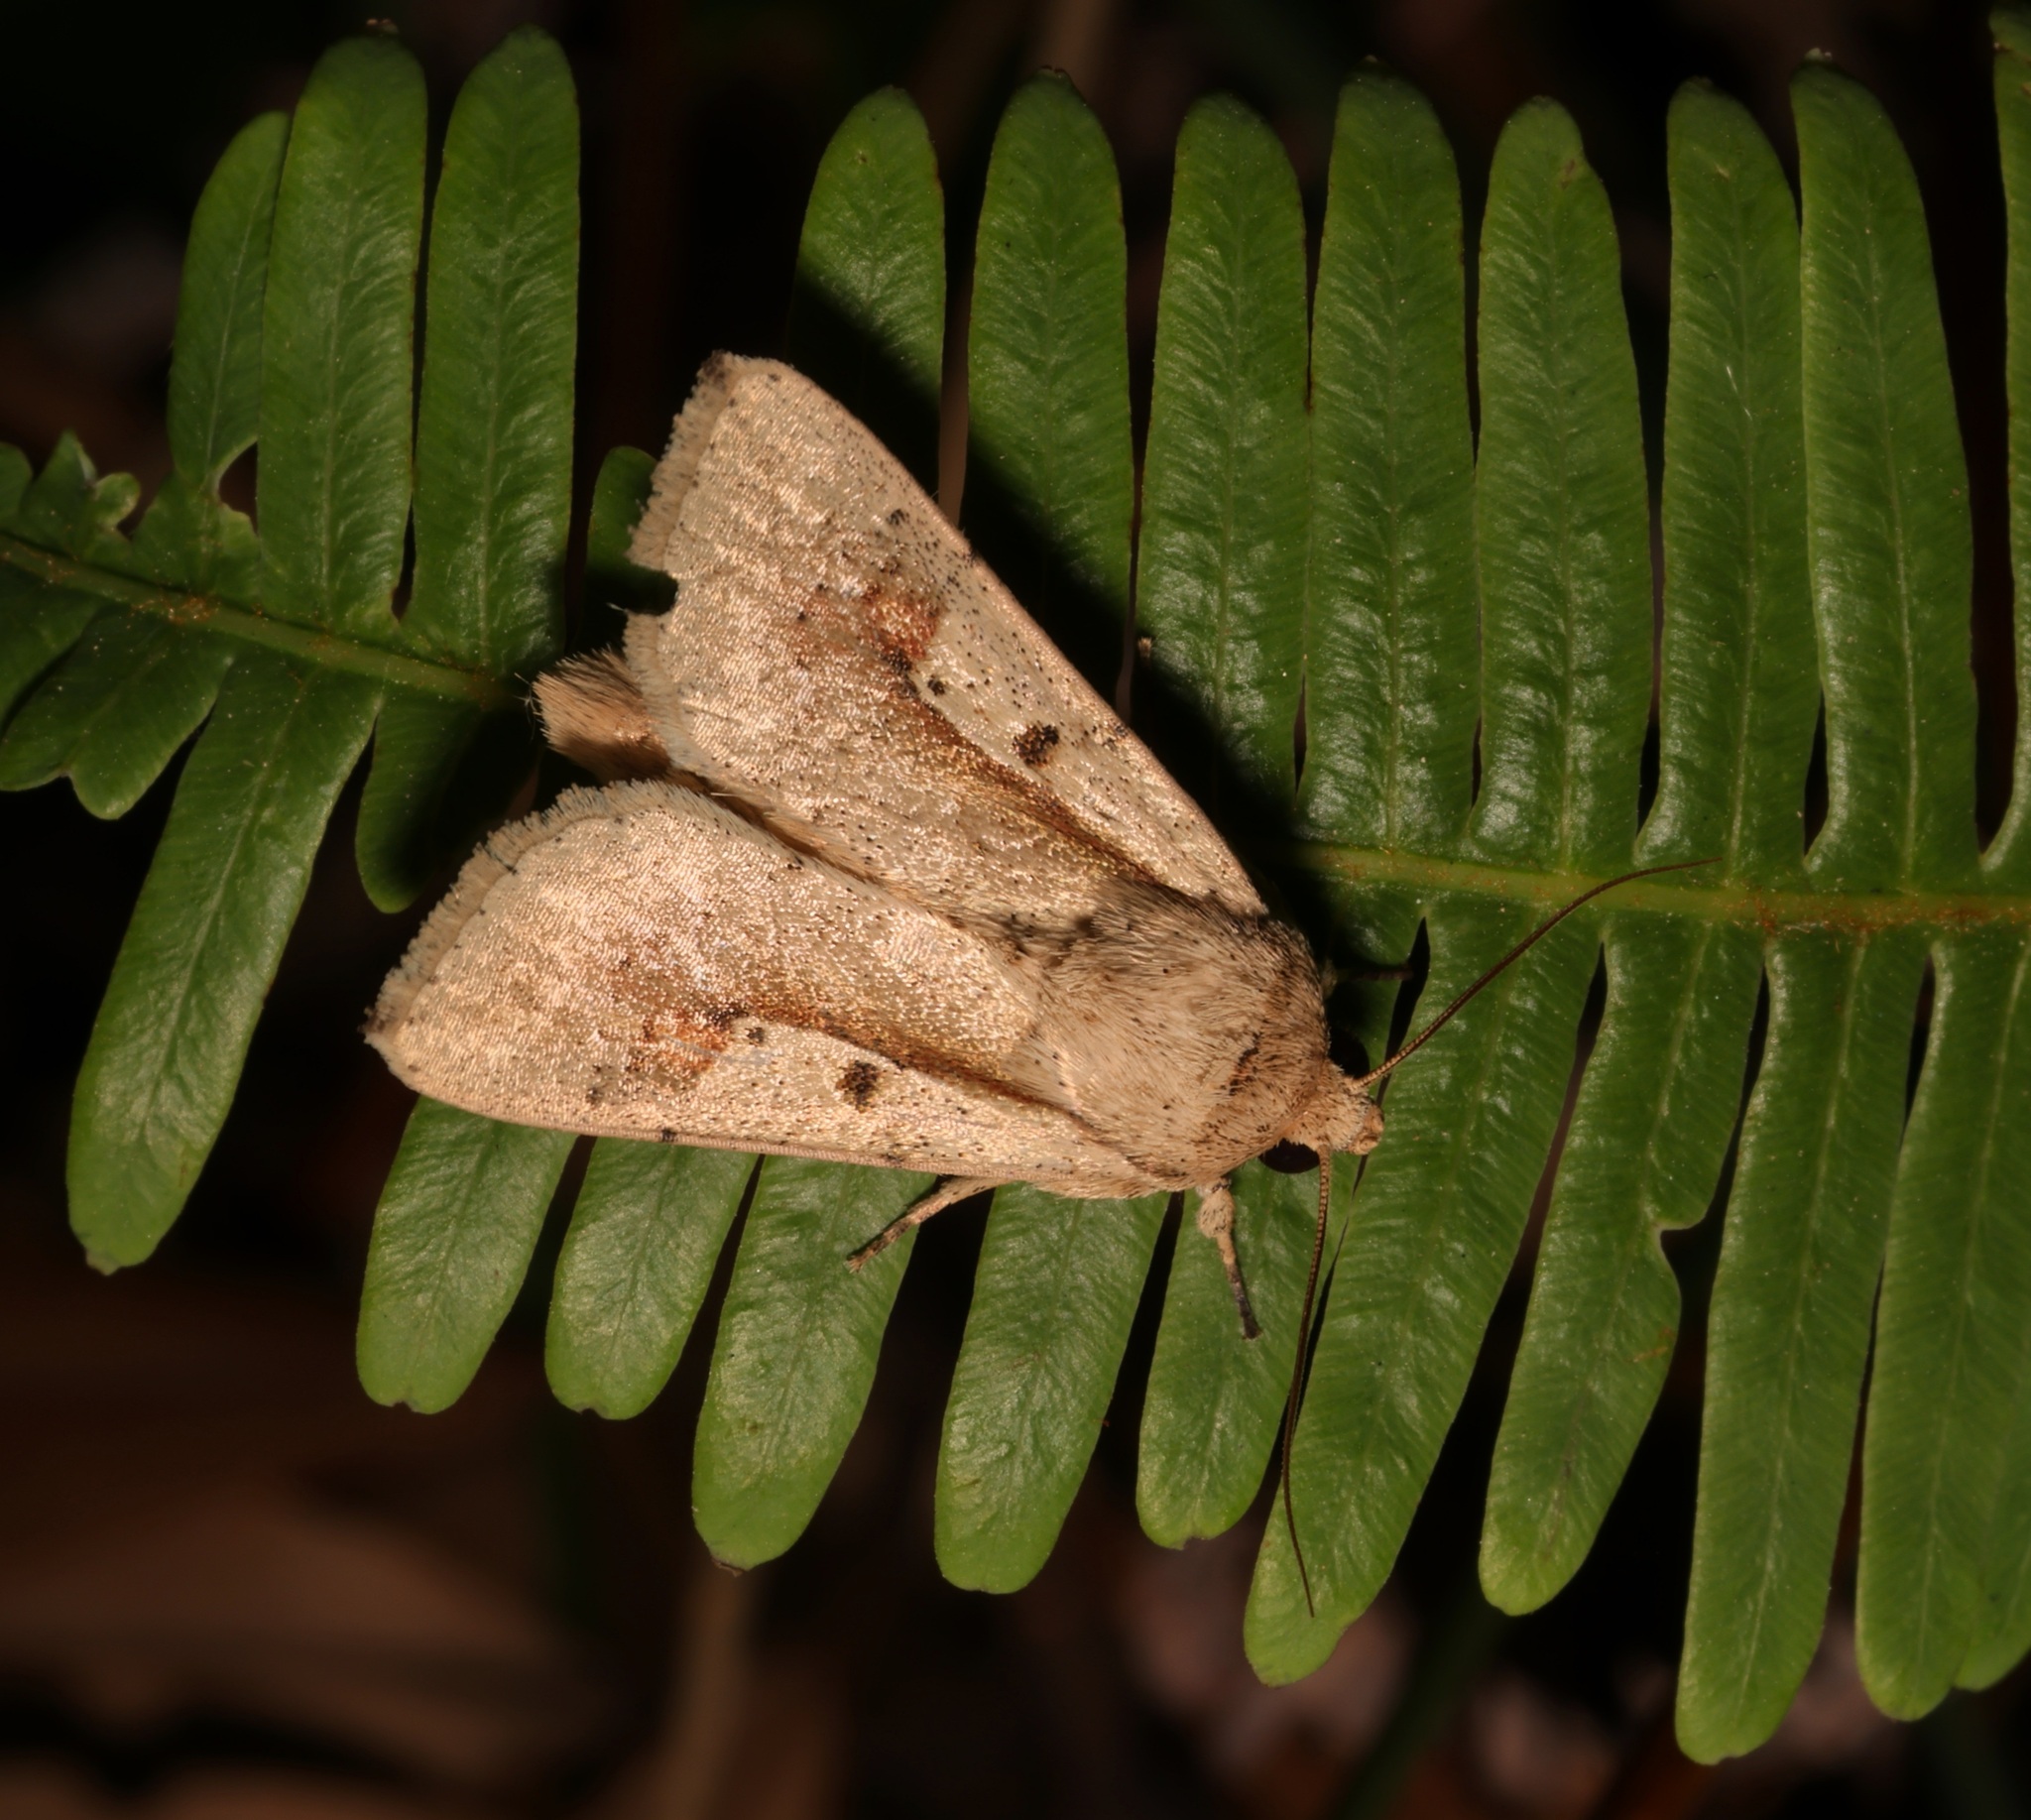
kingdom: Animalia
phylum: Arthropoda
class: Insecta
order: Lepidoptera
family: Noctuidae
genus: Leucania
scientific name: Leucania yu
